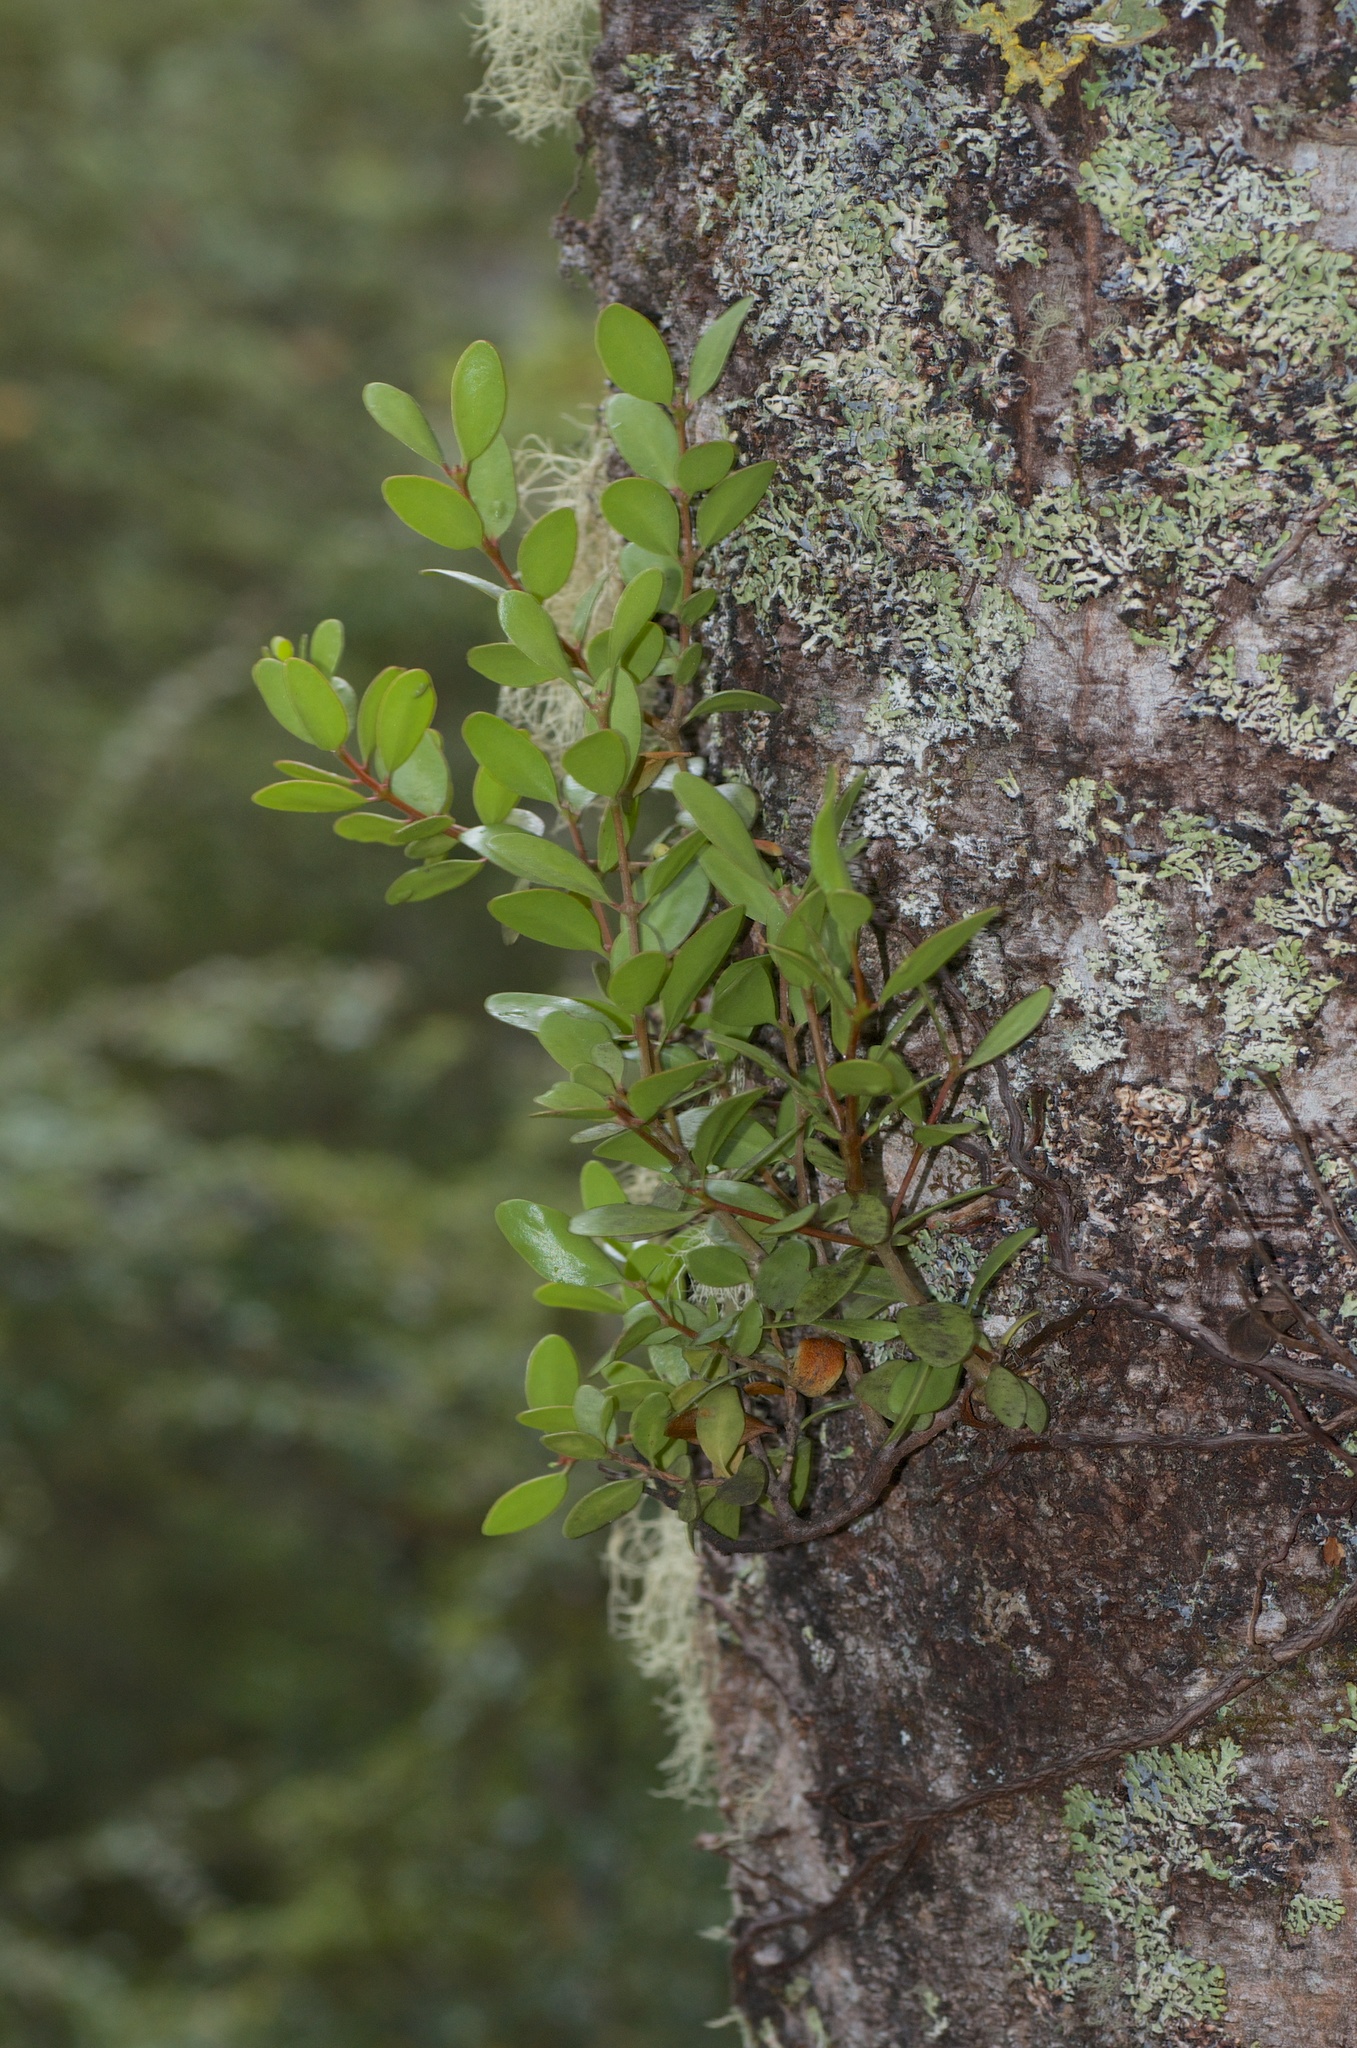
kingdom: Plantae
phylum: Tracheophyta
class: Magnoliopsida
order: Santalales
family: Loranthaceae
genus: Peraxilla
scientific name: Peraxilla tetrapetala
